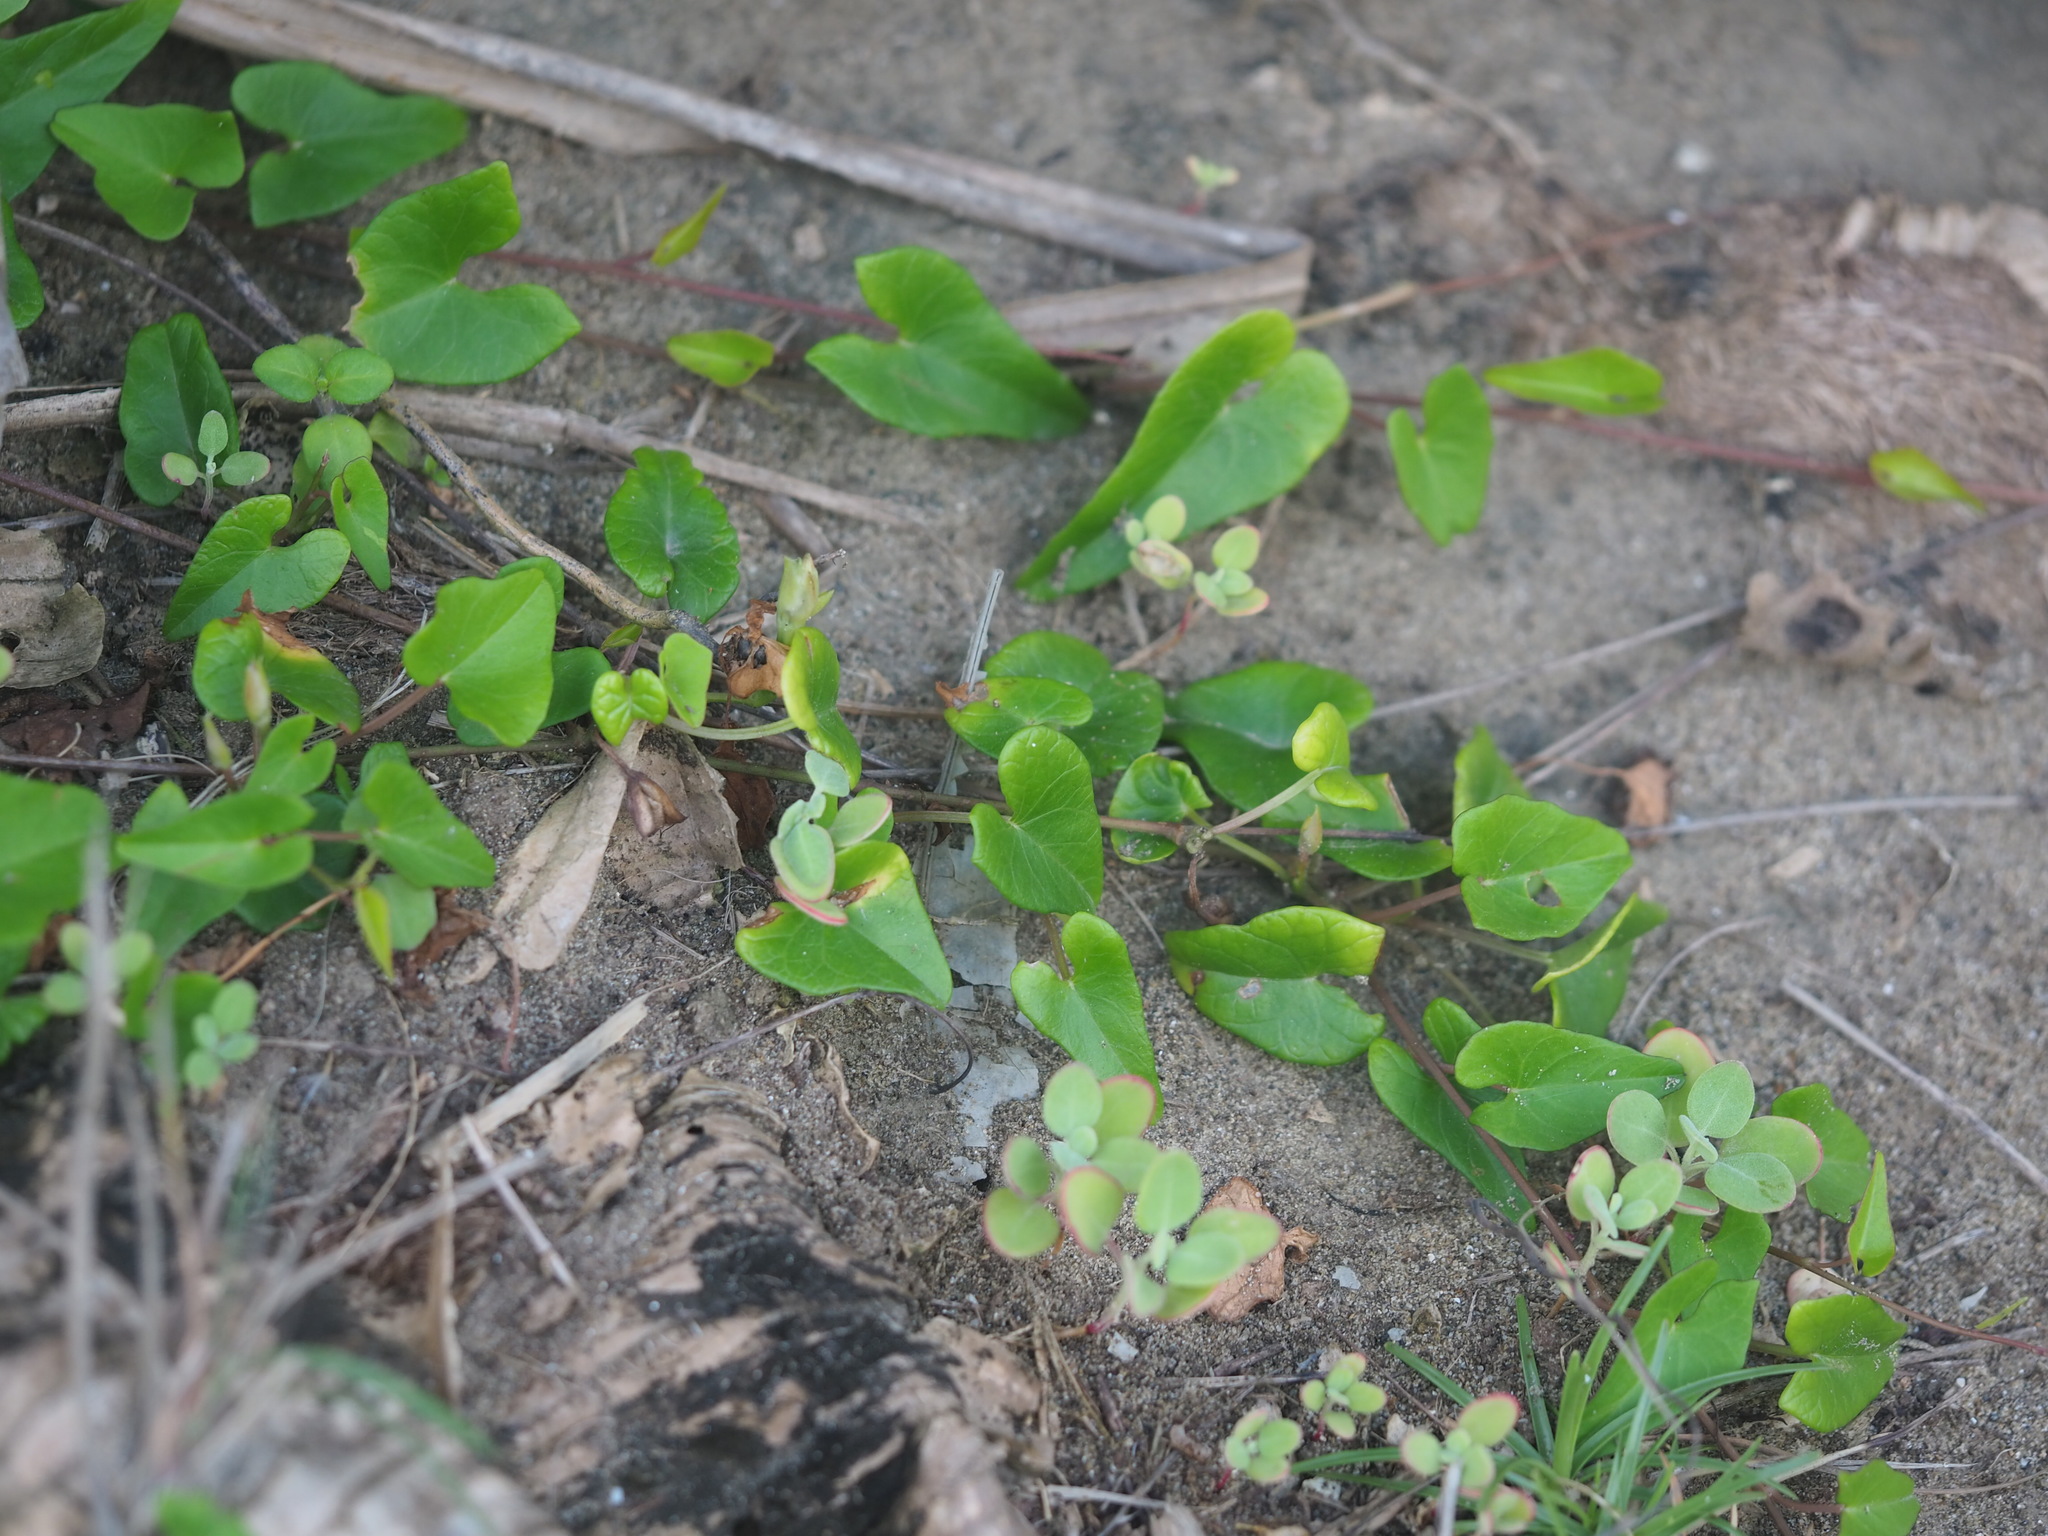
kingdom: Plantae
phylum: Tracheophyta
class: Magnoliopsida
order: Solanales
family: Convolvulaceae
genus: Ipomoea
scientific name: Ipomoea littoralis
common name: Coastal morning glory
